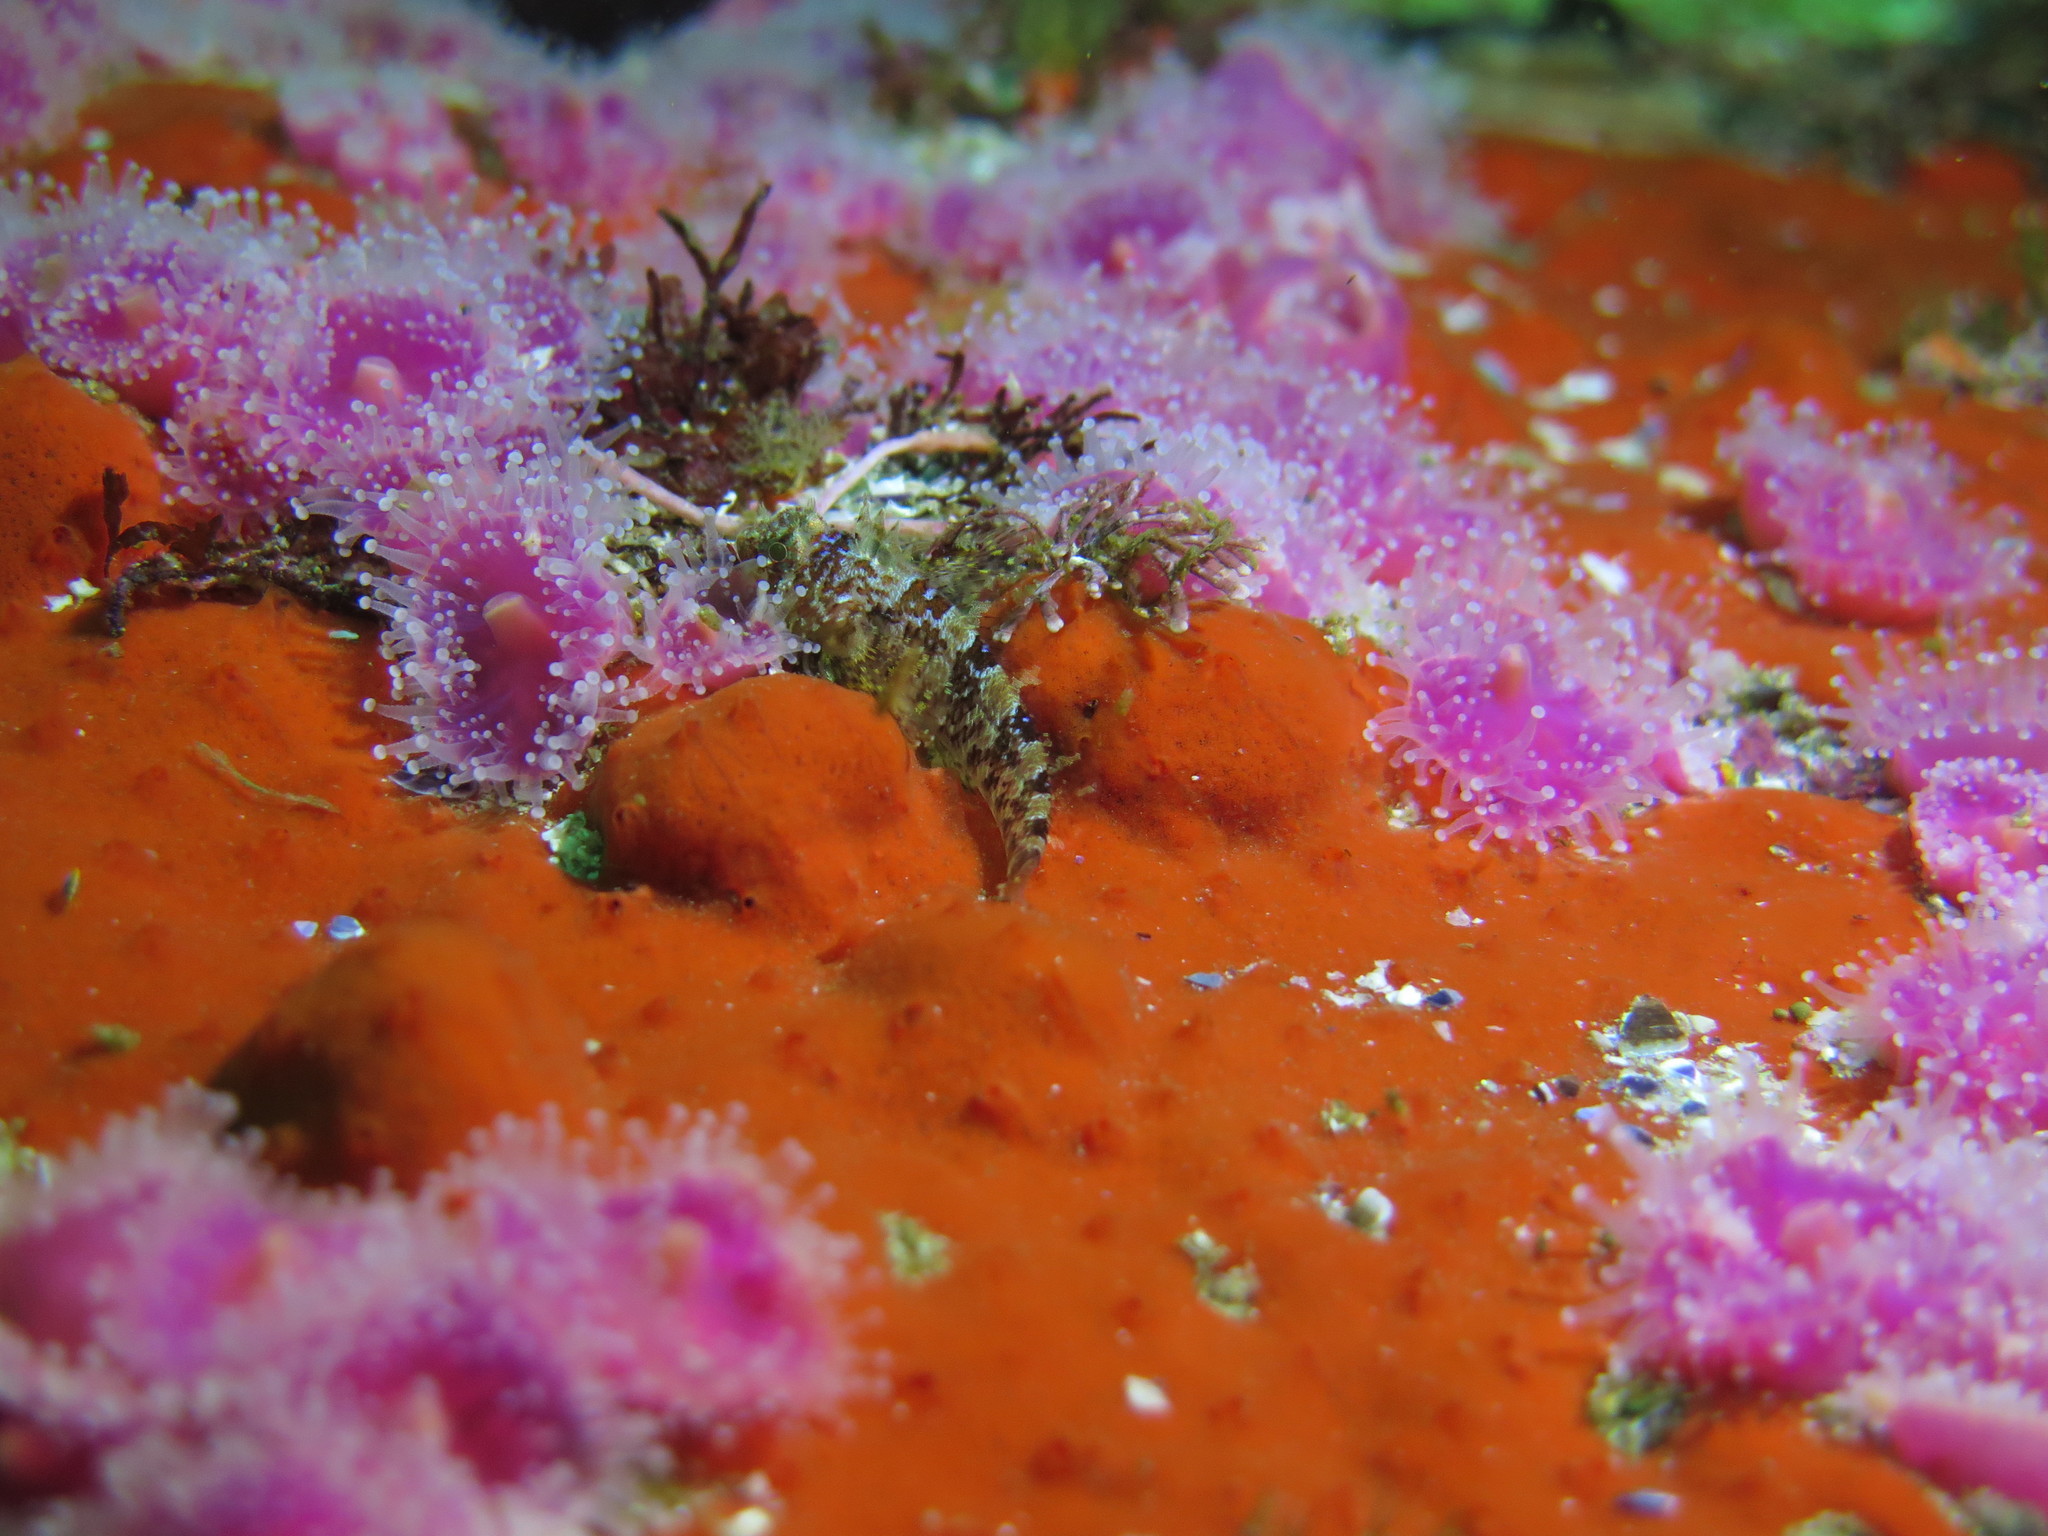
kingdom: Animalia
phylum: Chordata
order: Perciformes
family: Tripterygiidae
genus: Cremnochorites
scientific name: Cremnochorites capensis
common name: Cape triplefin
